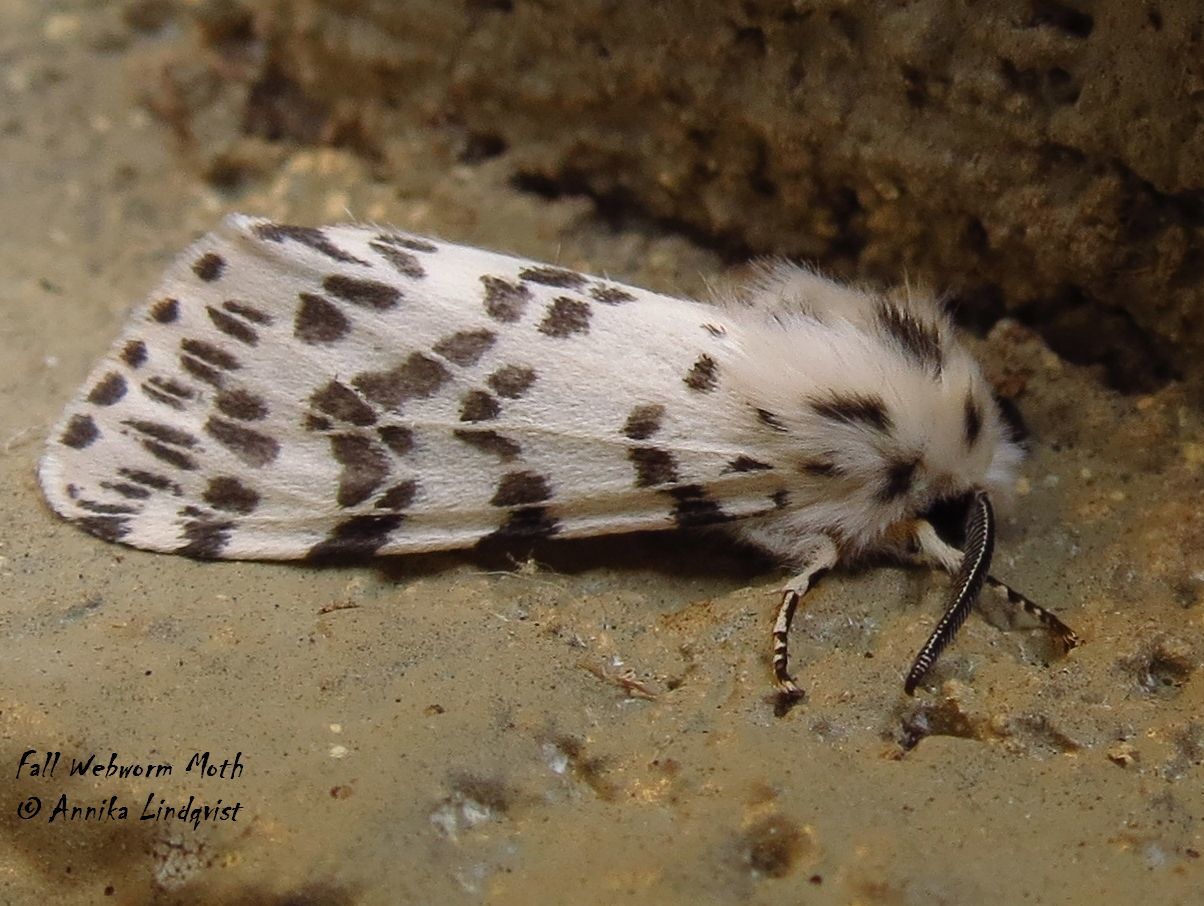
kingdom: Animalia
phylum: Arthropoda
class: Insecta
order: Lepidoptera
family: Erebidae
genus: Hyphantria
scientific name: Hyphantria cunea
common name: American white moth
